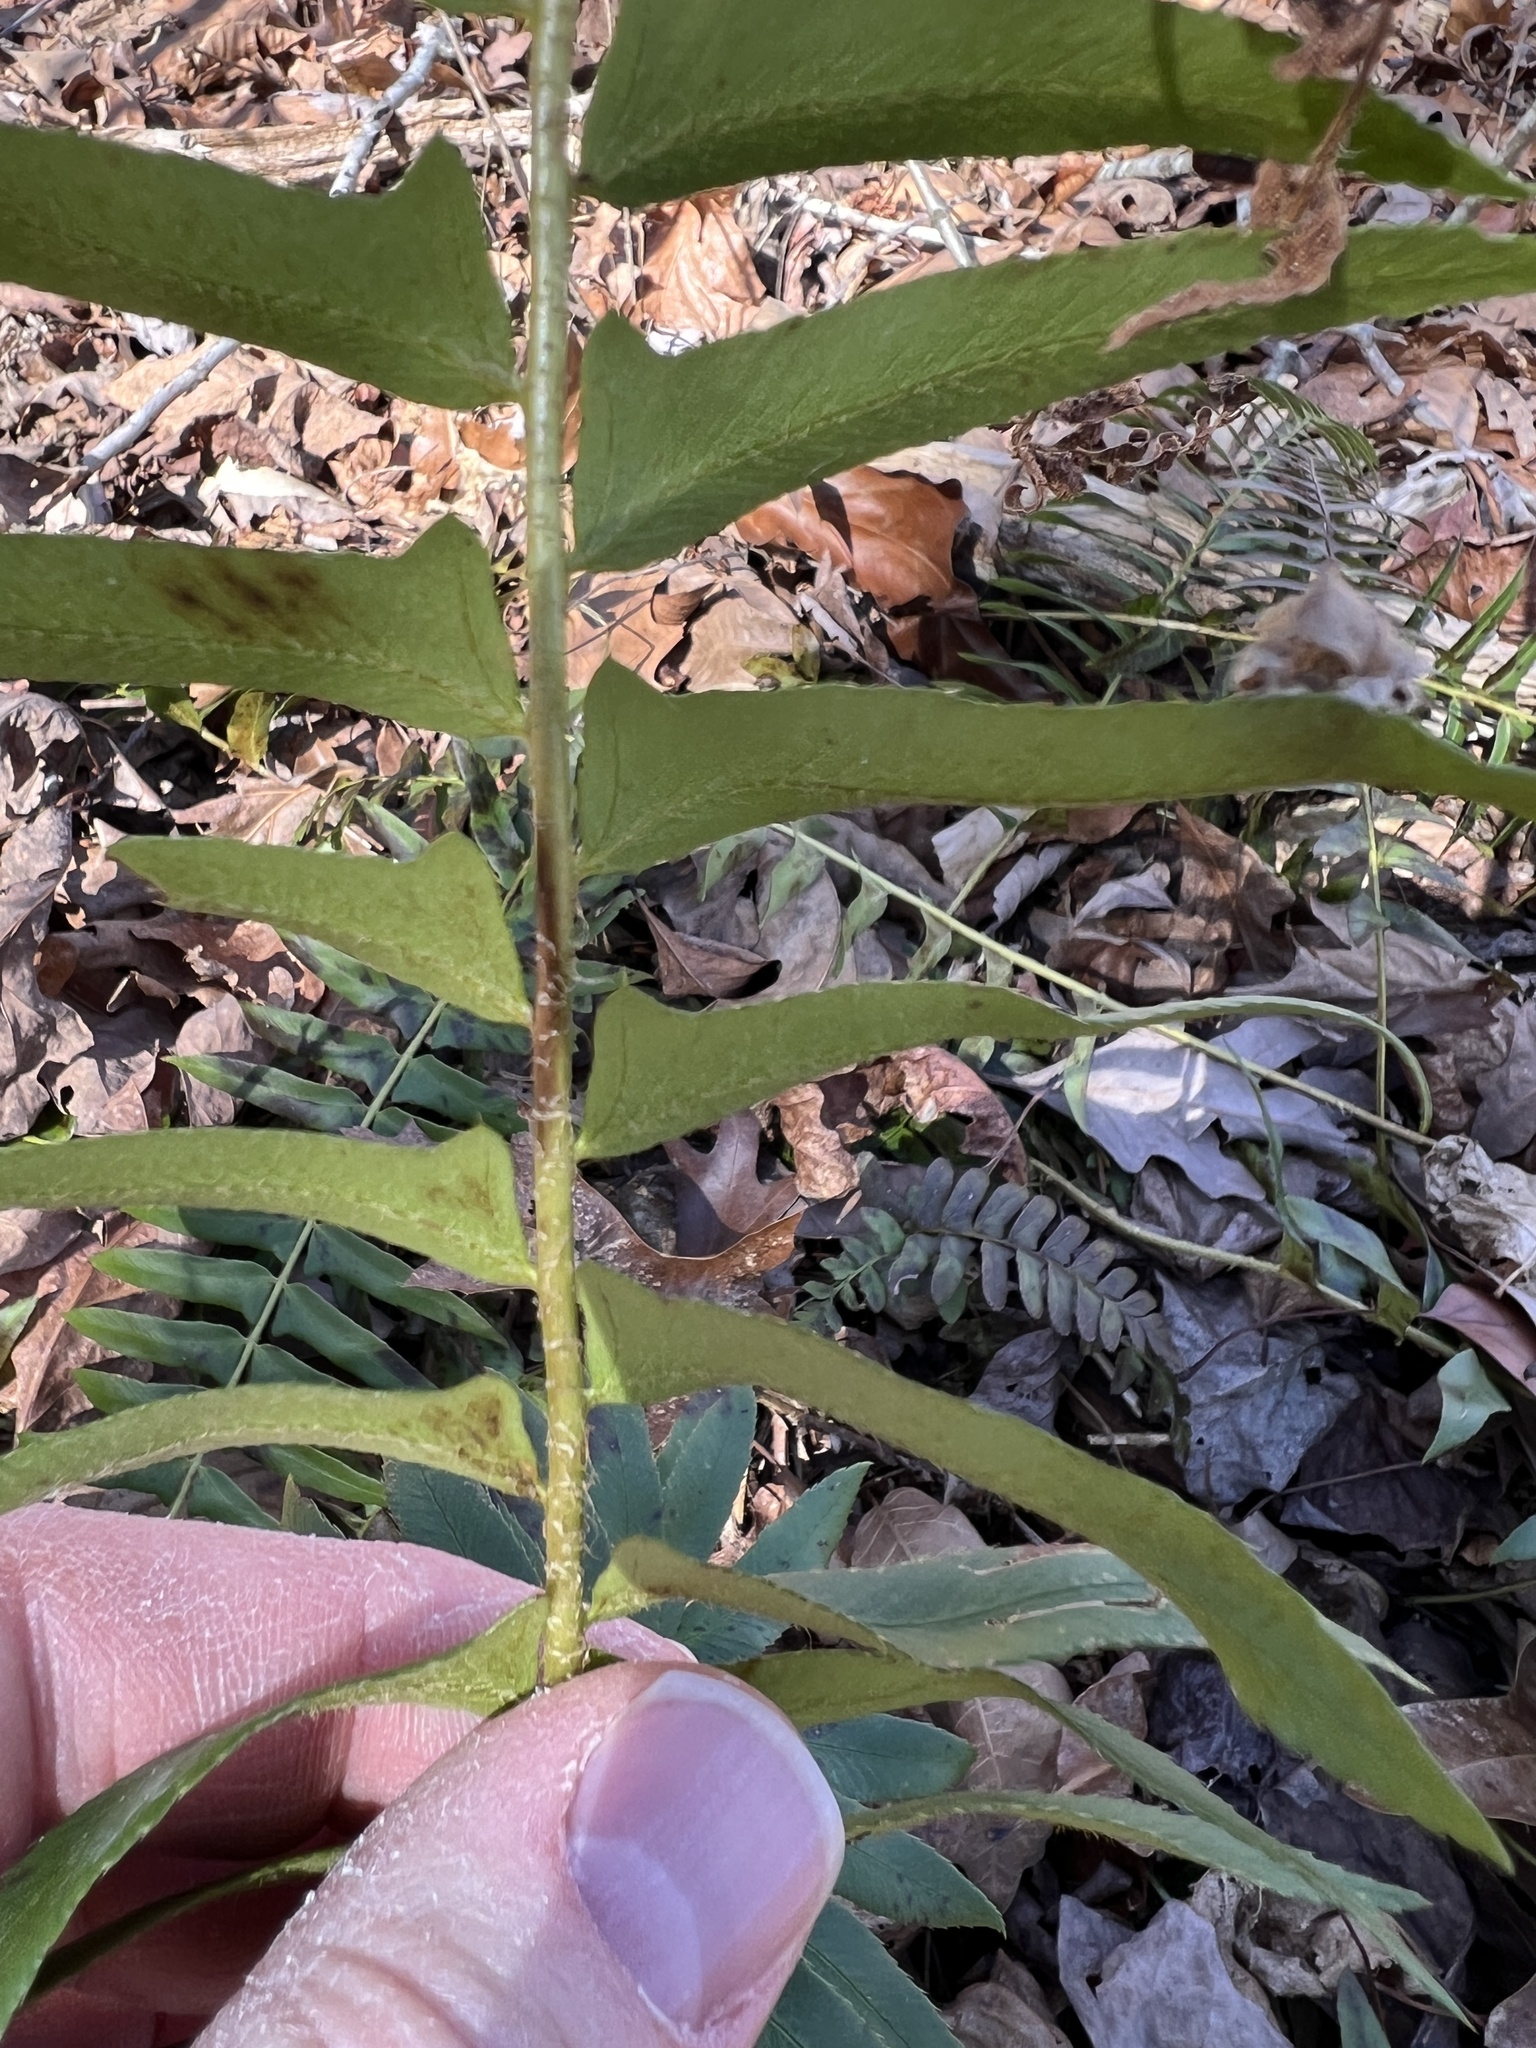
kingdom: Plantae
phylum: Tracheophyta
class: Polypodiopsida
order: Polypodiales
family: Dryopteridaceae
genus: Polystichum
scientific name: Polystichum acrostichoides
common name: Christmas fern
